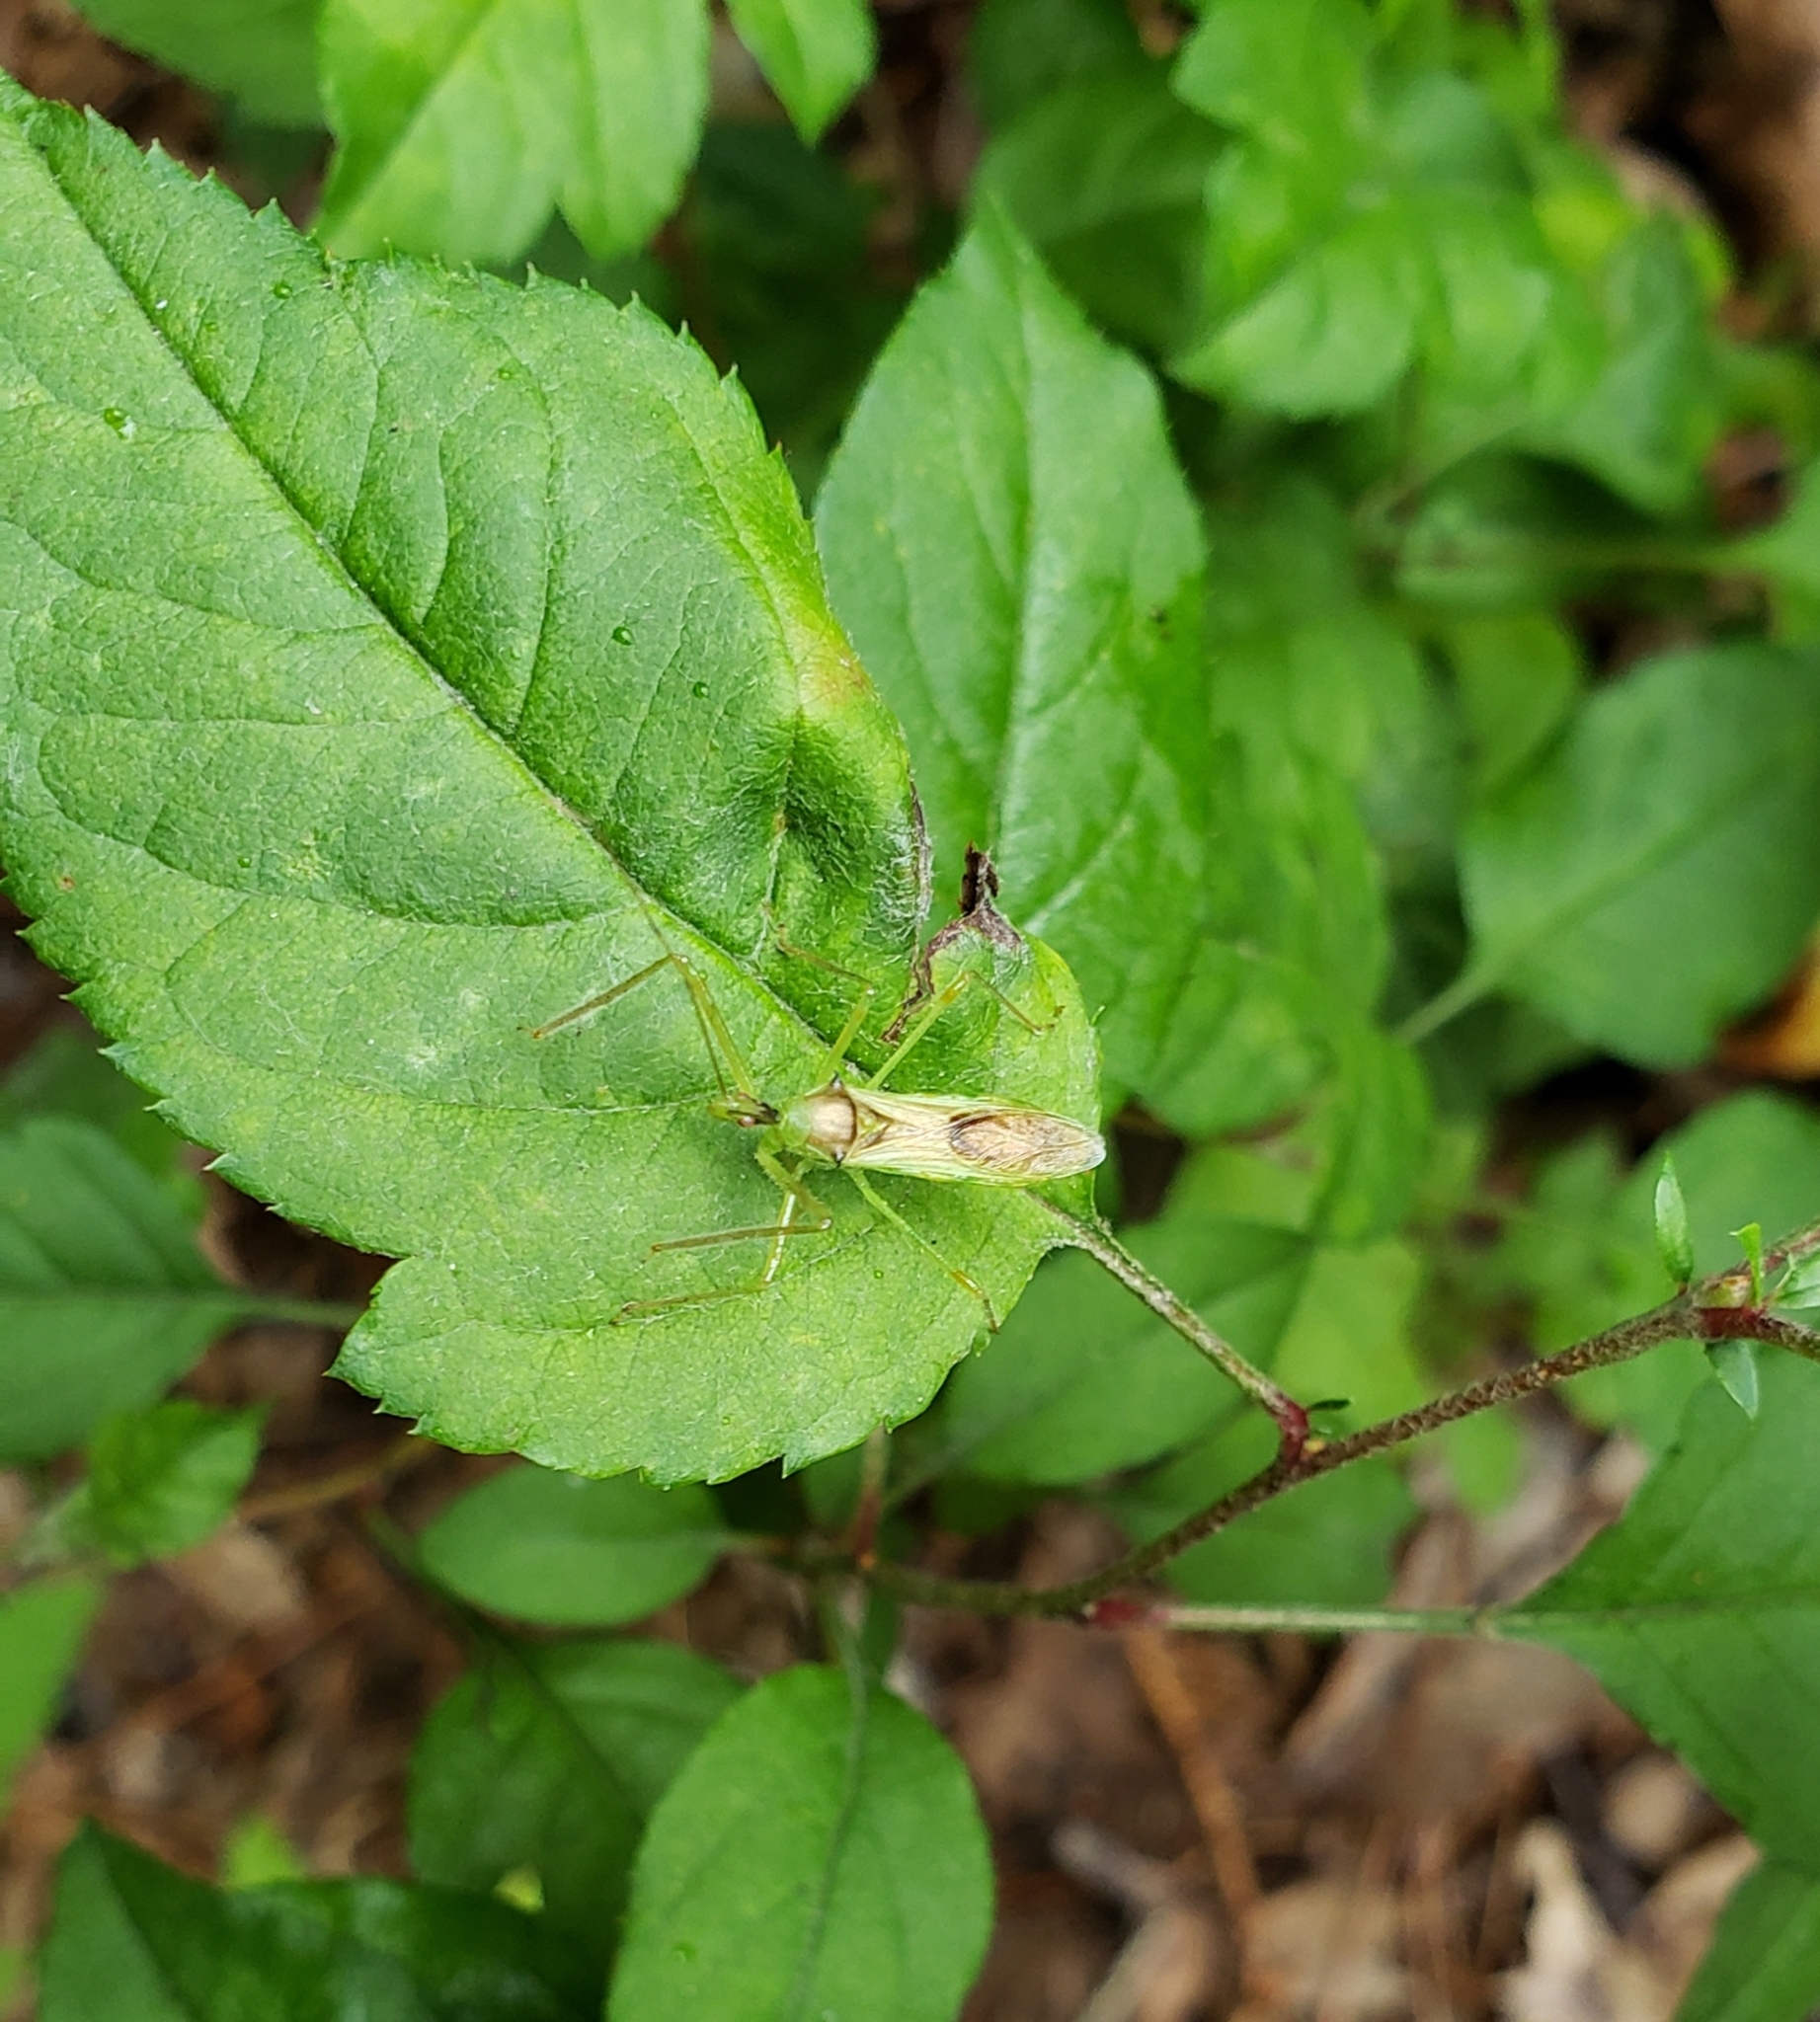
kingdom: Animalia
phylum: Arthropoda
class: Insecta
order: Hemiptera
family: Reduviidae
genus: Zelus
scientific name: Zelus luridus
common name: Pale green assassin bug
